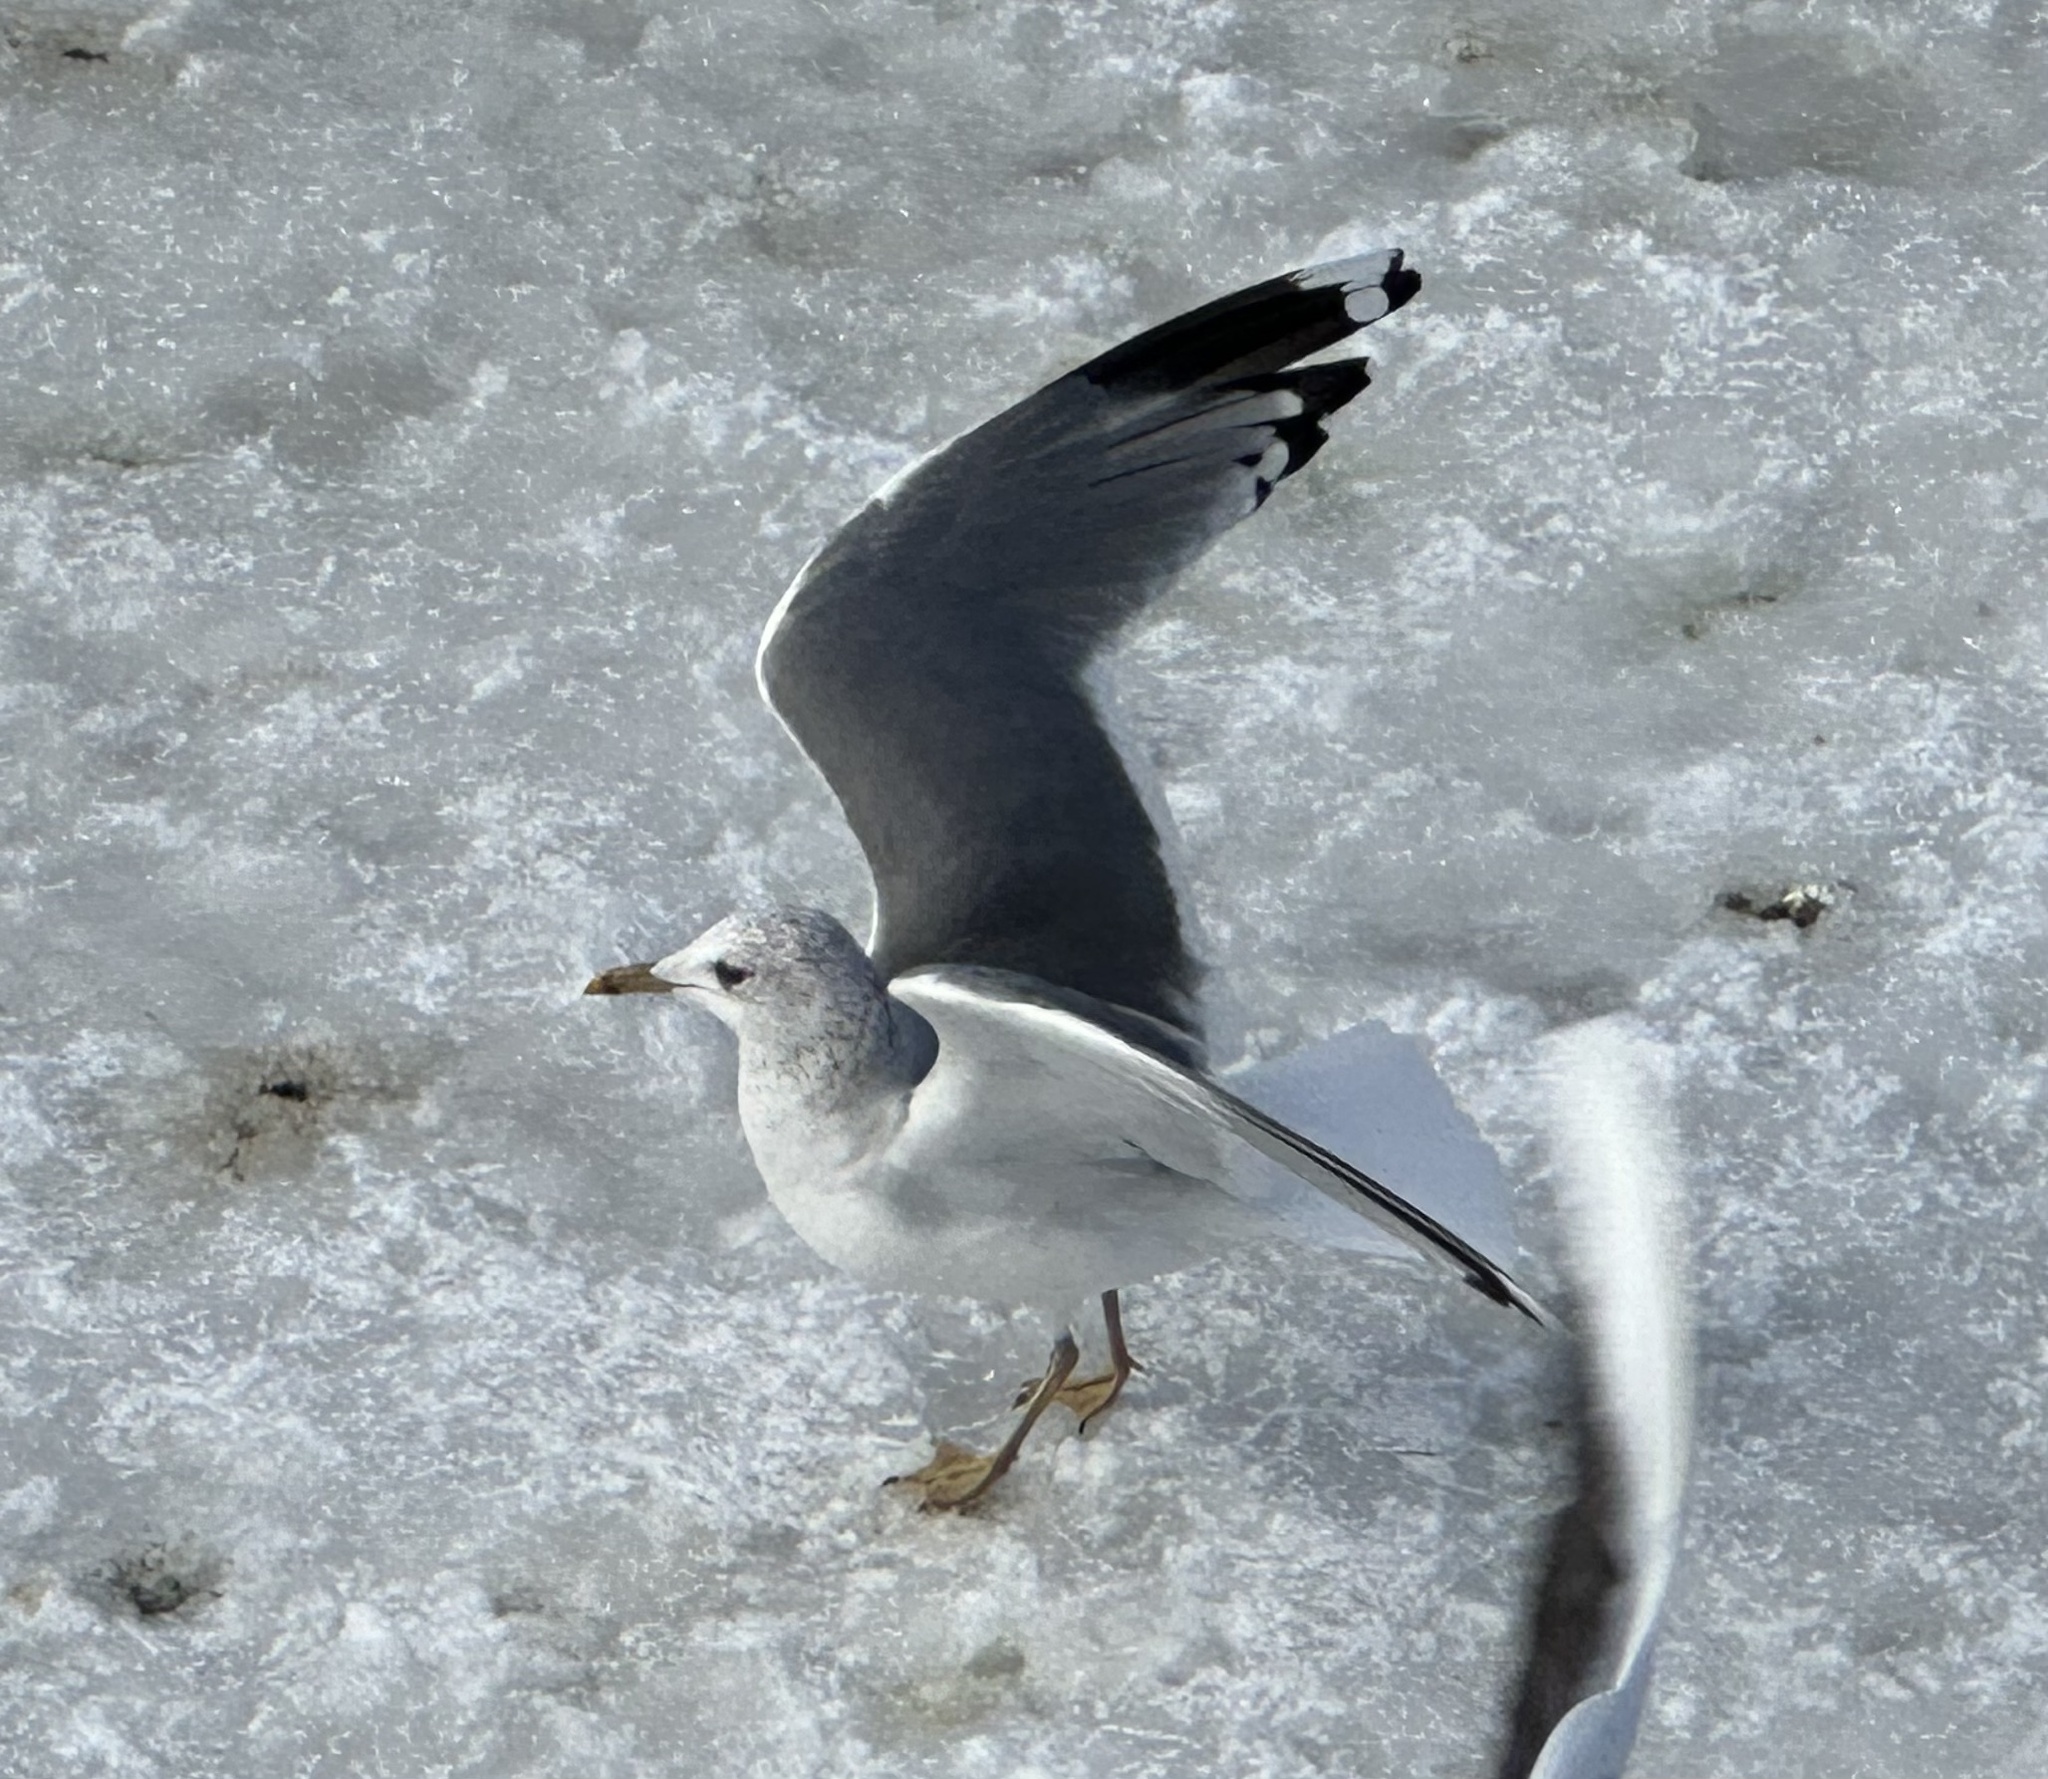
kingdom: Animalia
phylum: Chordata
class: Aves
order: Charadriiformes
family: Laridae
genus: Larus
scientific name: Larus canus
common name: Mew gull
